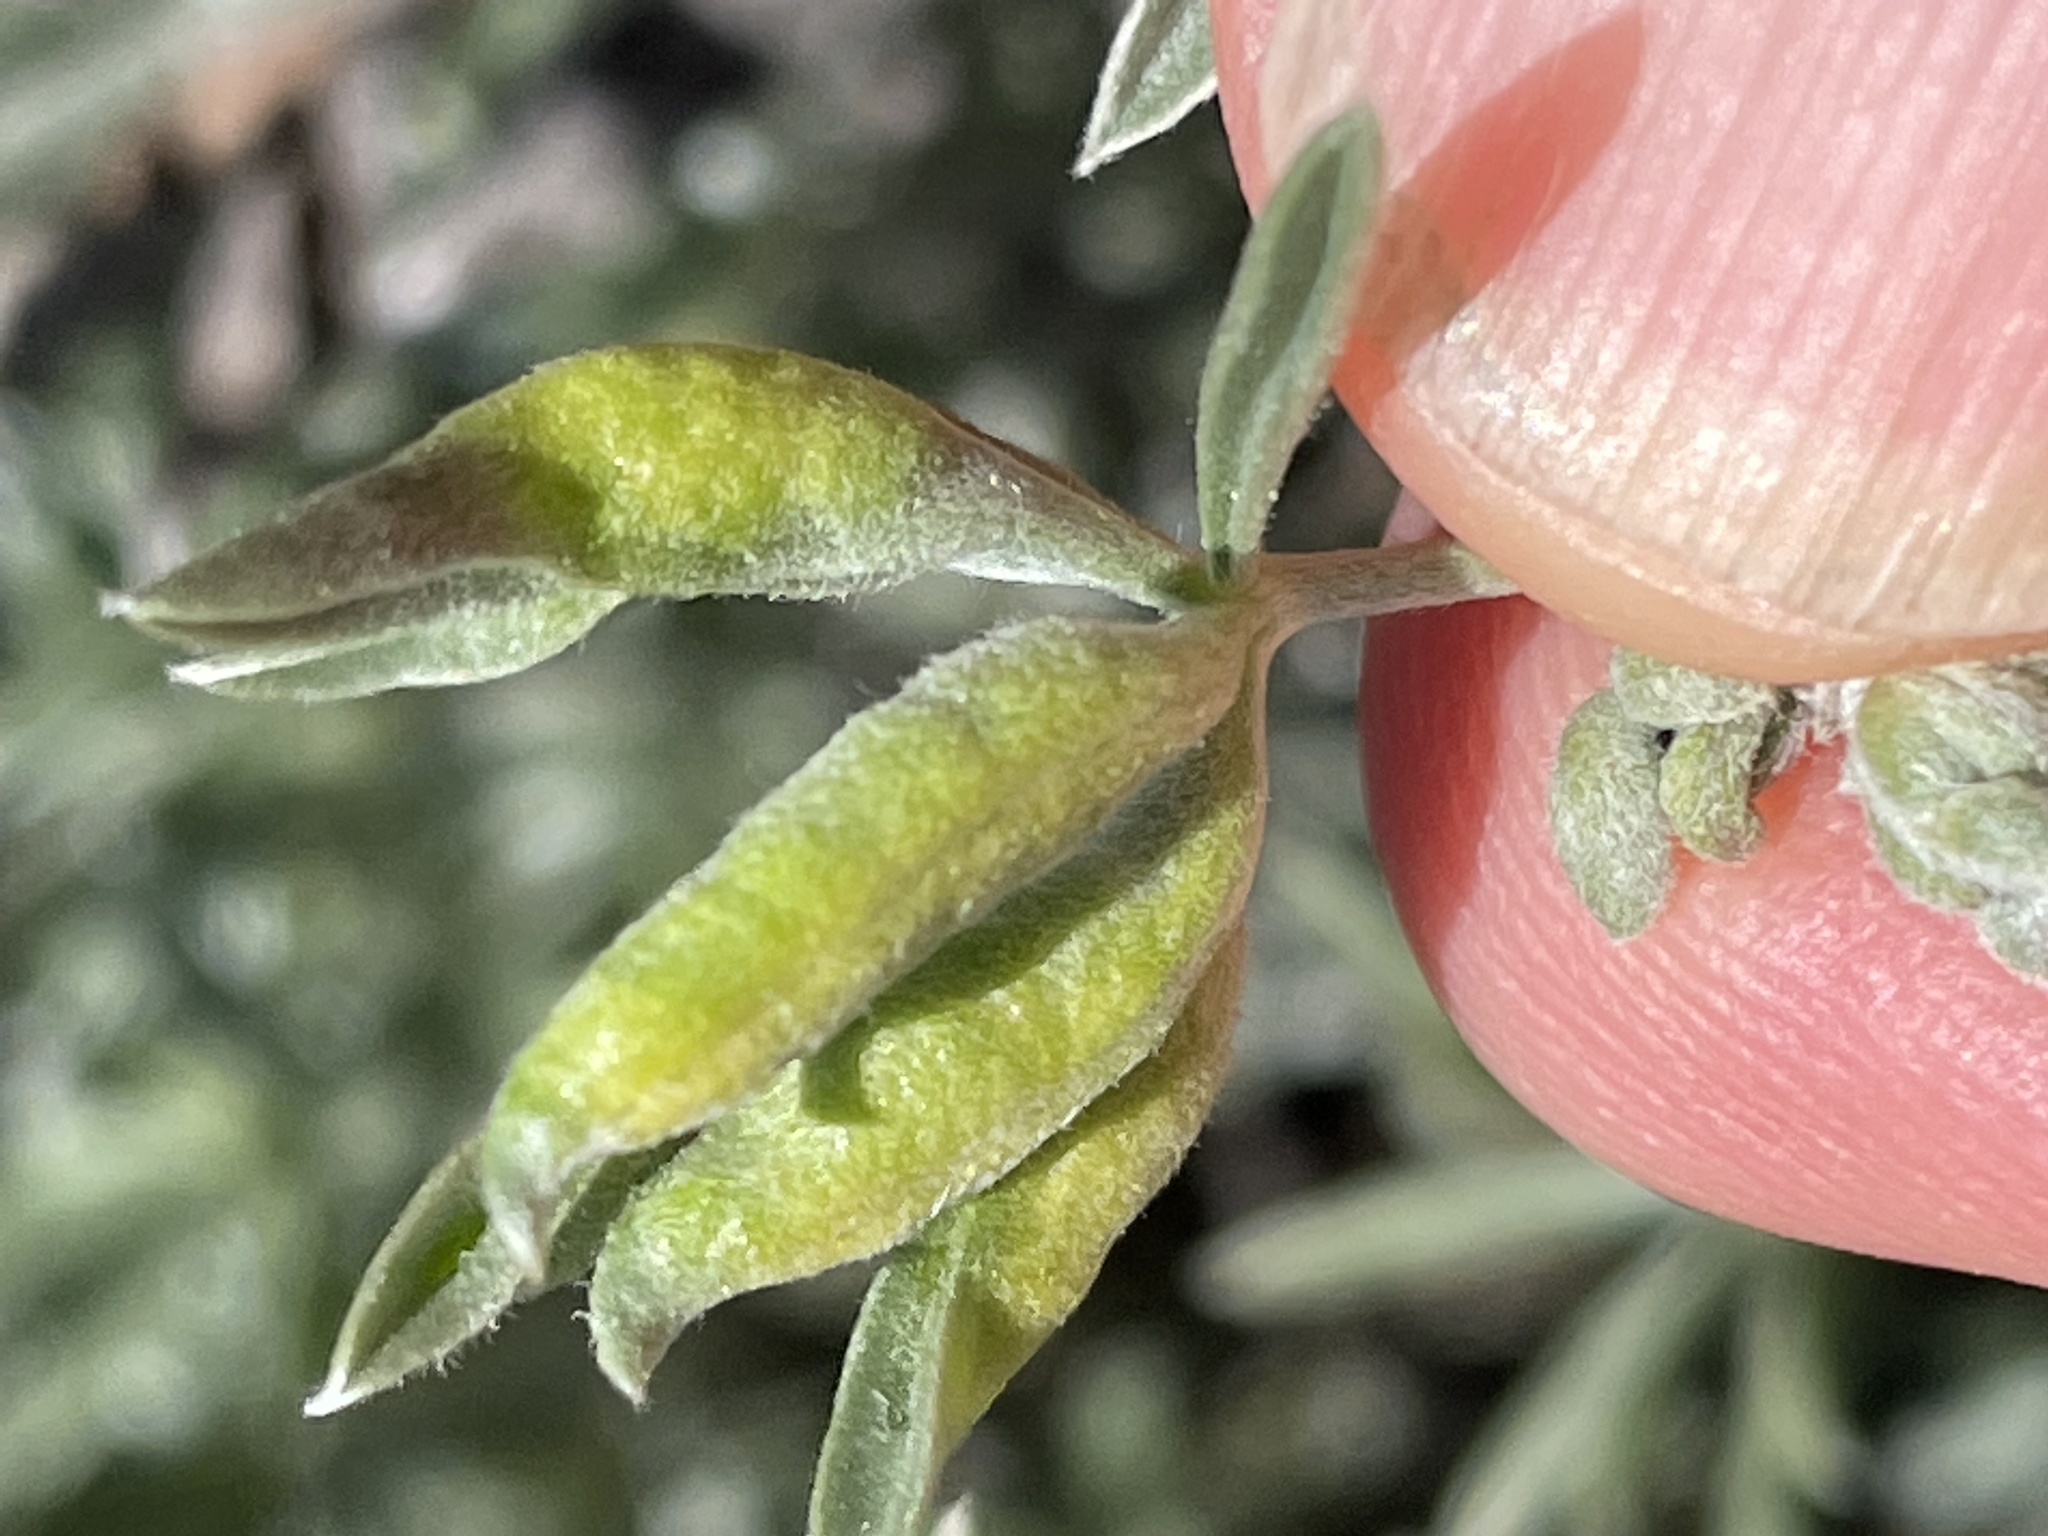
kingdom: Animalia
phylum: Arthropoda
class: Insecta
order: Diptera
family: Cecidomyiidae
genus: Dasineura
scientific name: Dasineura lupinorum
